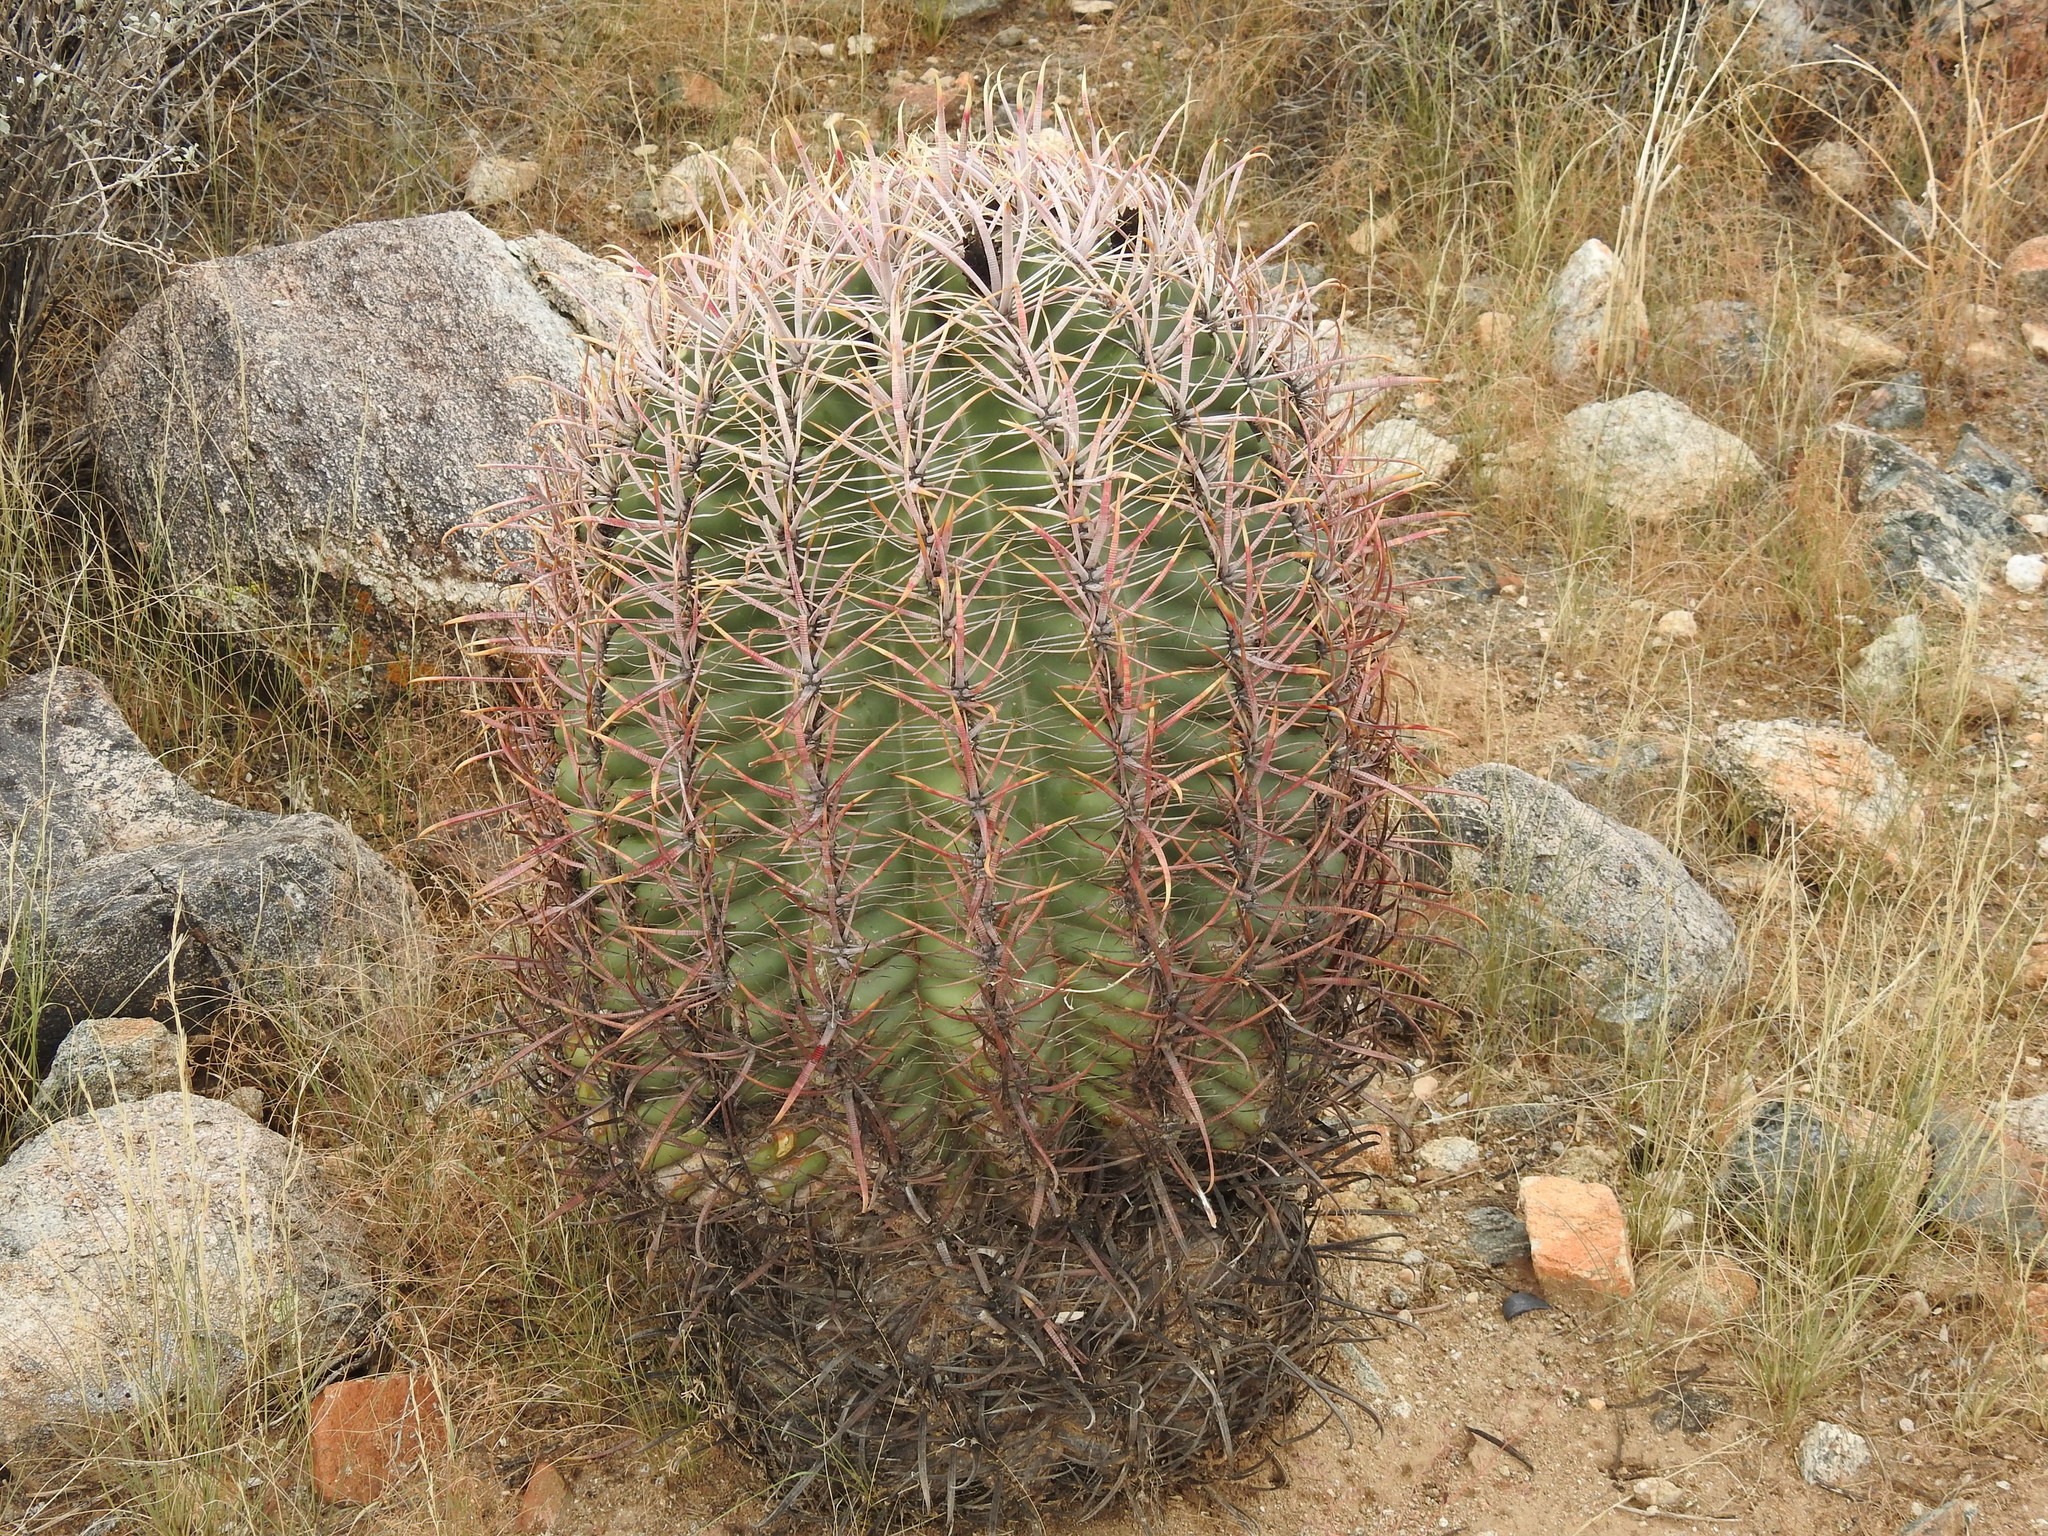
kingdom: Plantae
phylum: Tracheophyta
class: Magnoliopsida
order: Caryophyllales
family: Cactaceae
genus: Ferocactus
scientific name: Ferocactus cylindraceus
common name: California barrel cactus
